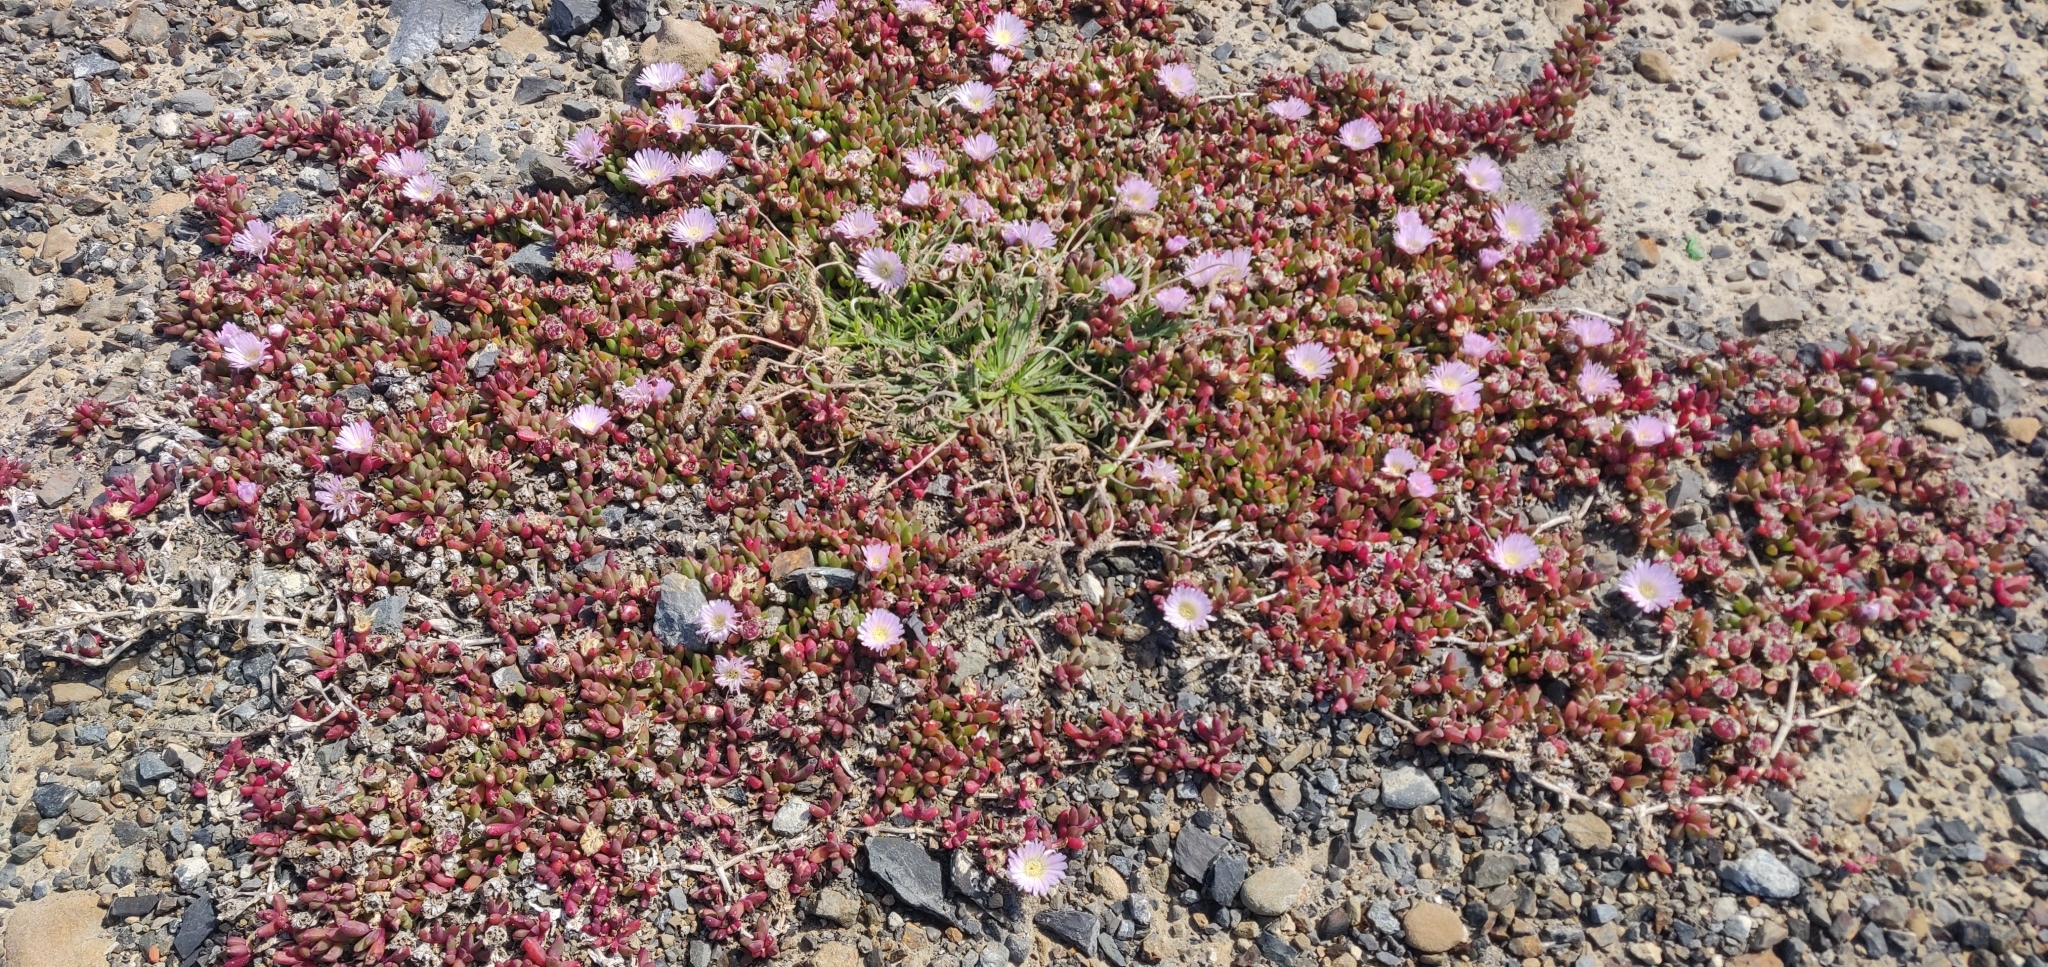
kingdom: Plantae
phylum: Tracheophyta
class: Magnoliopsida
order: Caryophyllales
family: Aizoaceae
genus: Disphyma
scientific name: Disphyma australe
